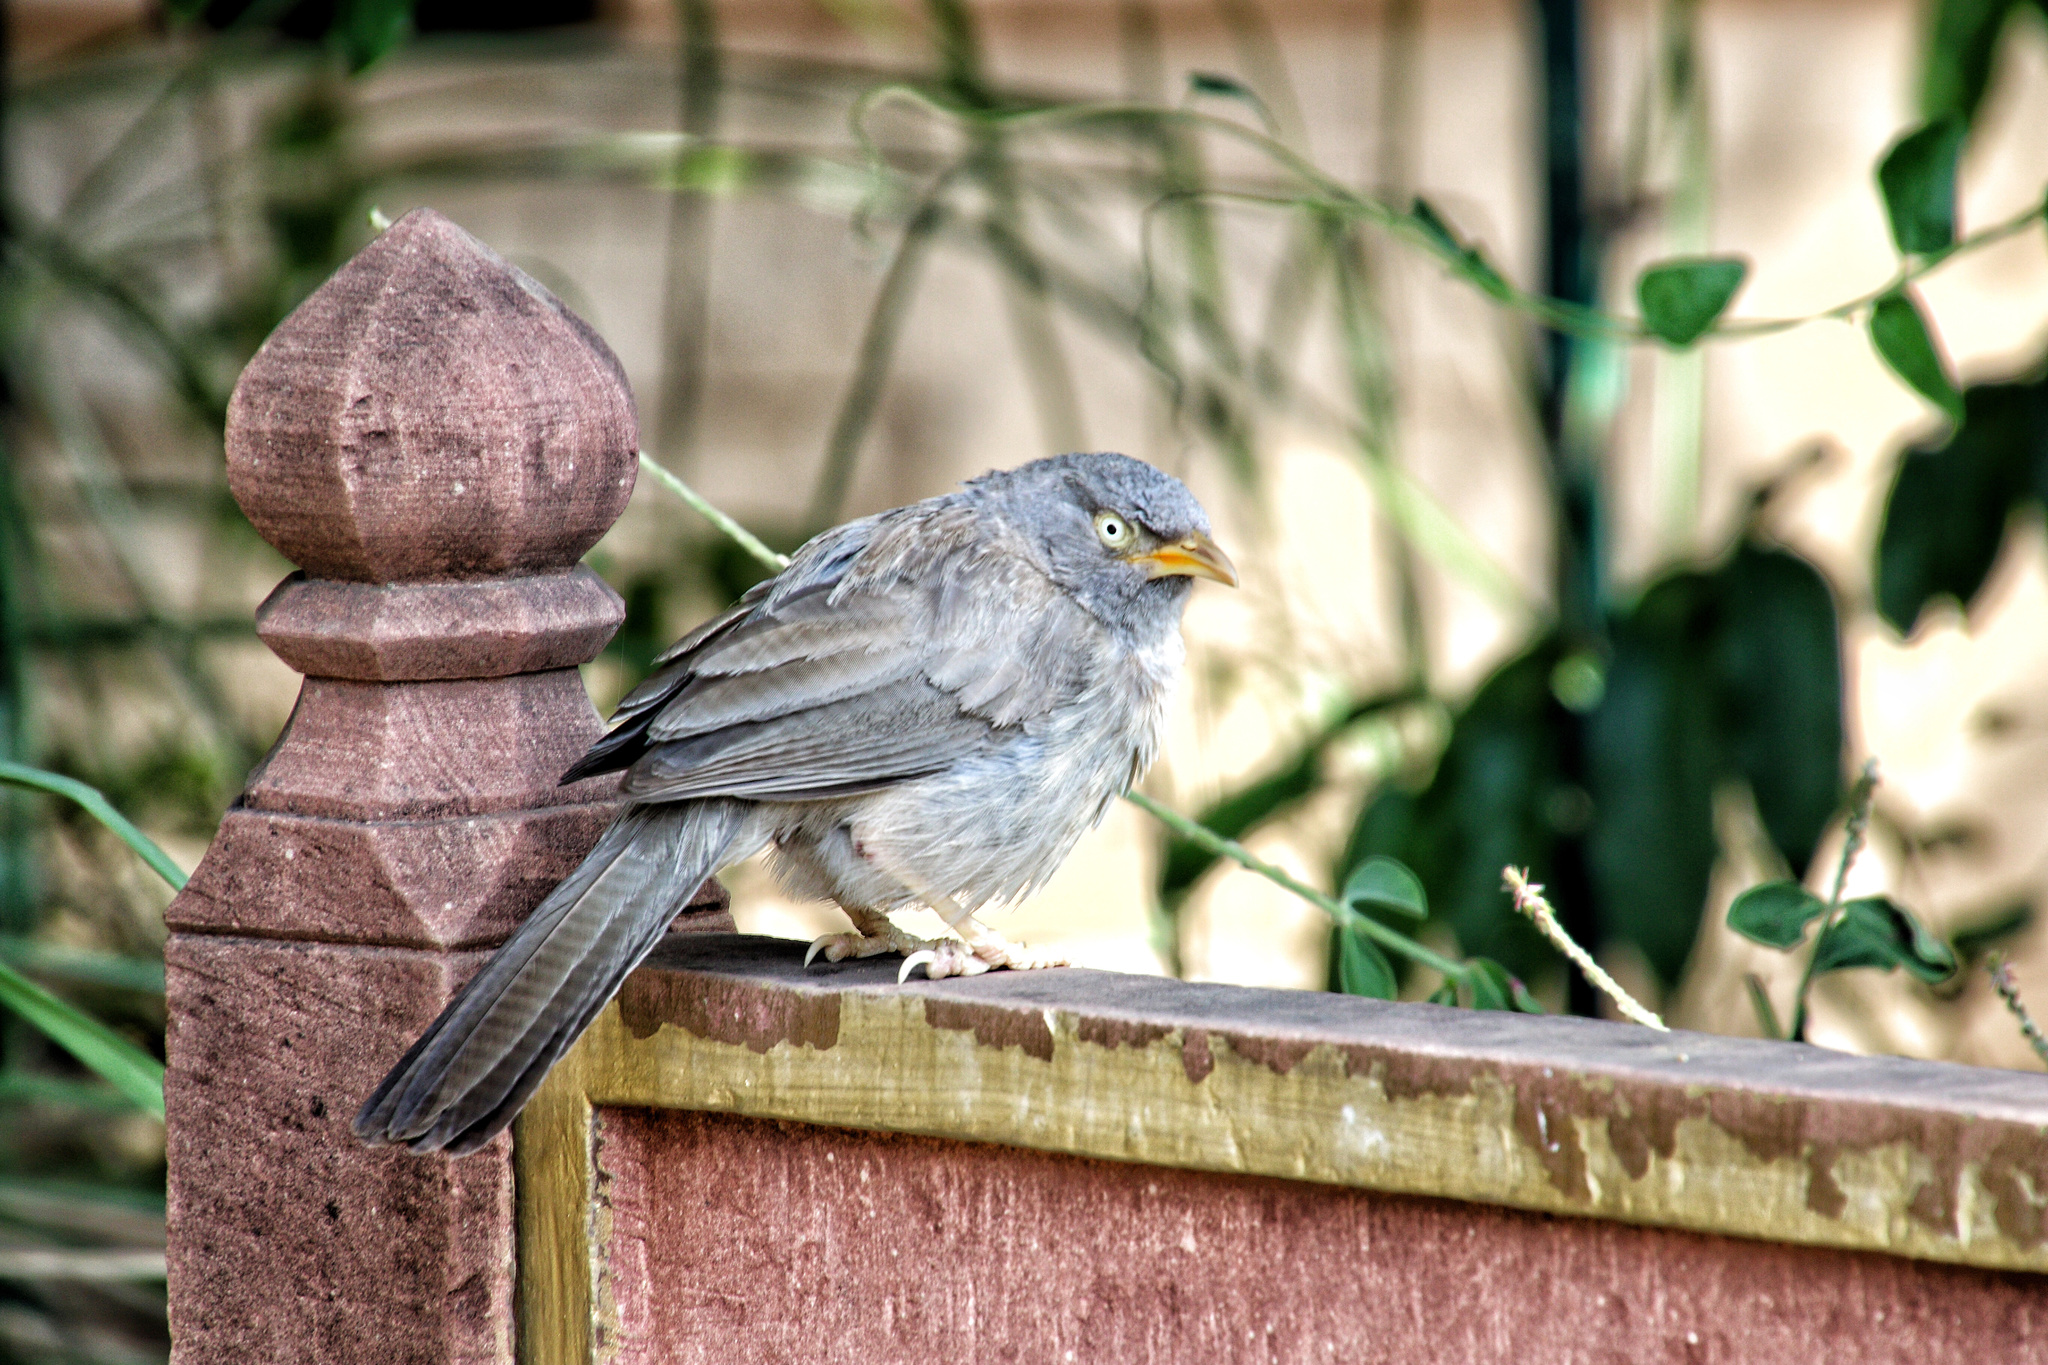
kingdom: Animalia
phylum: Chordata
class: Aves
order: Passeriformes
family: Leiothrichidae
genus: Turdoides
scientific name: Turdoides striata
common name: Jungle babbler
